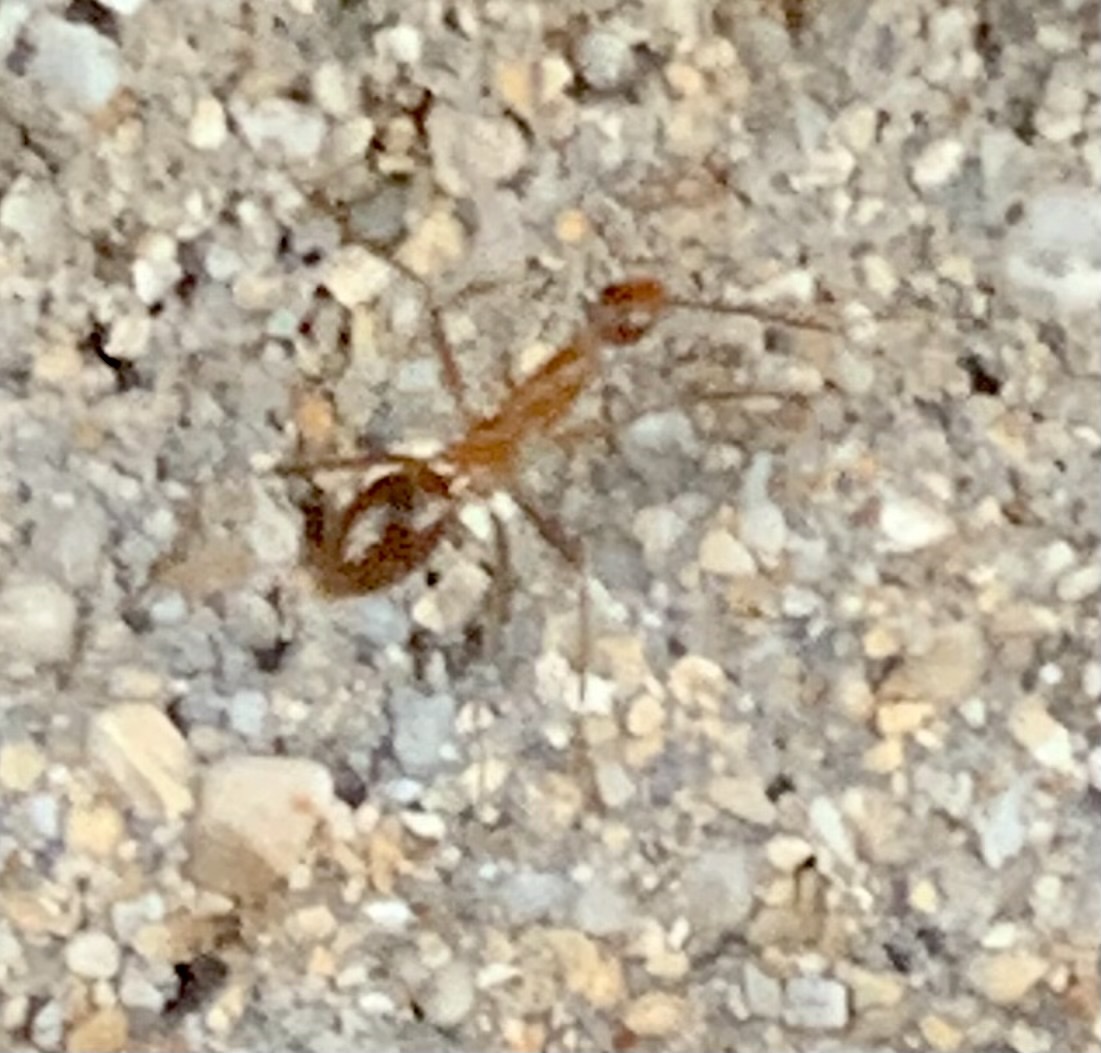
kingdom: Animalia
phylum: Arthropoda
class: Insecta
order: Hymenoptera
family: Formicidae
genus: Anoplolepis
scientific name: Anoplolepis gracilipes
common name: Ant
